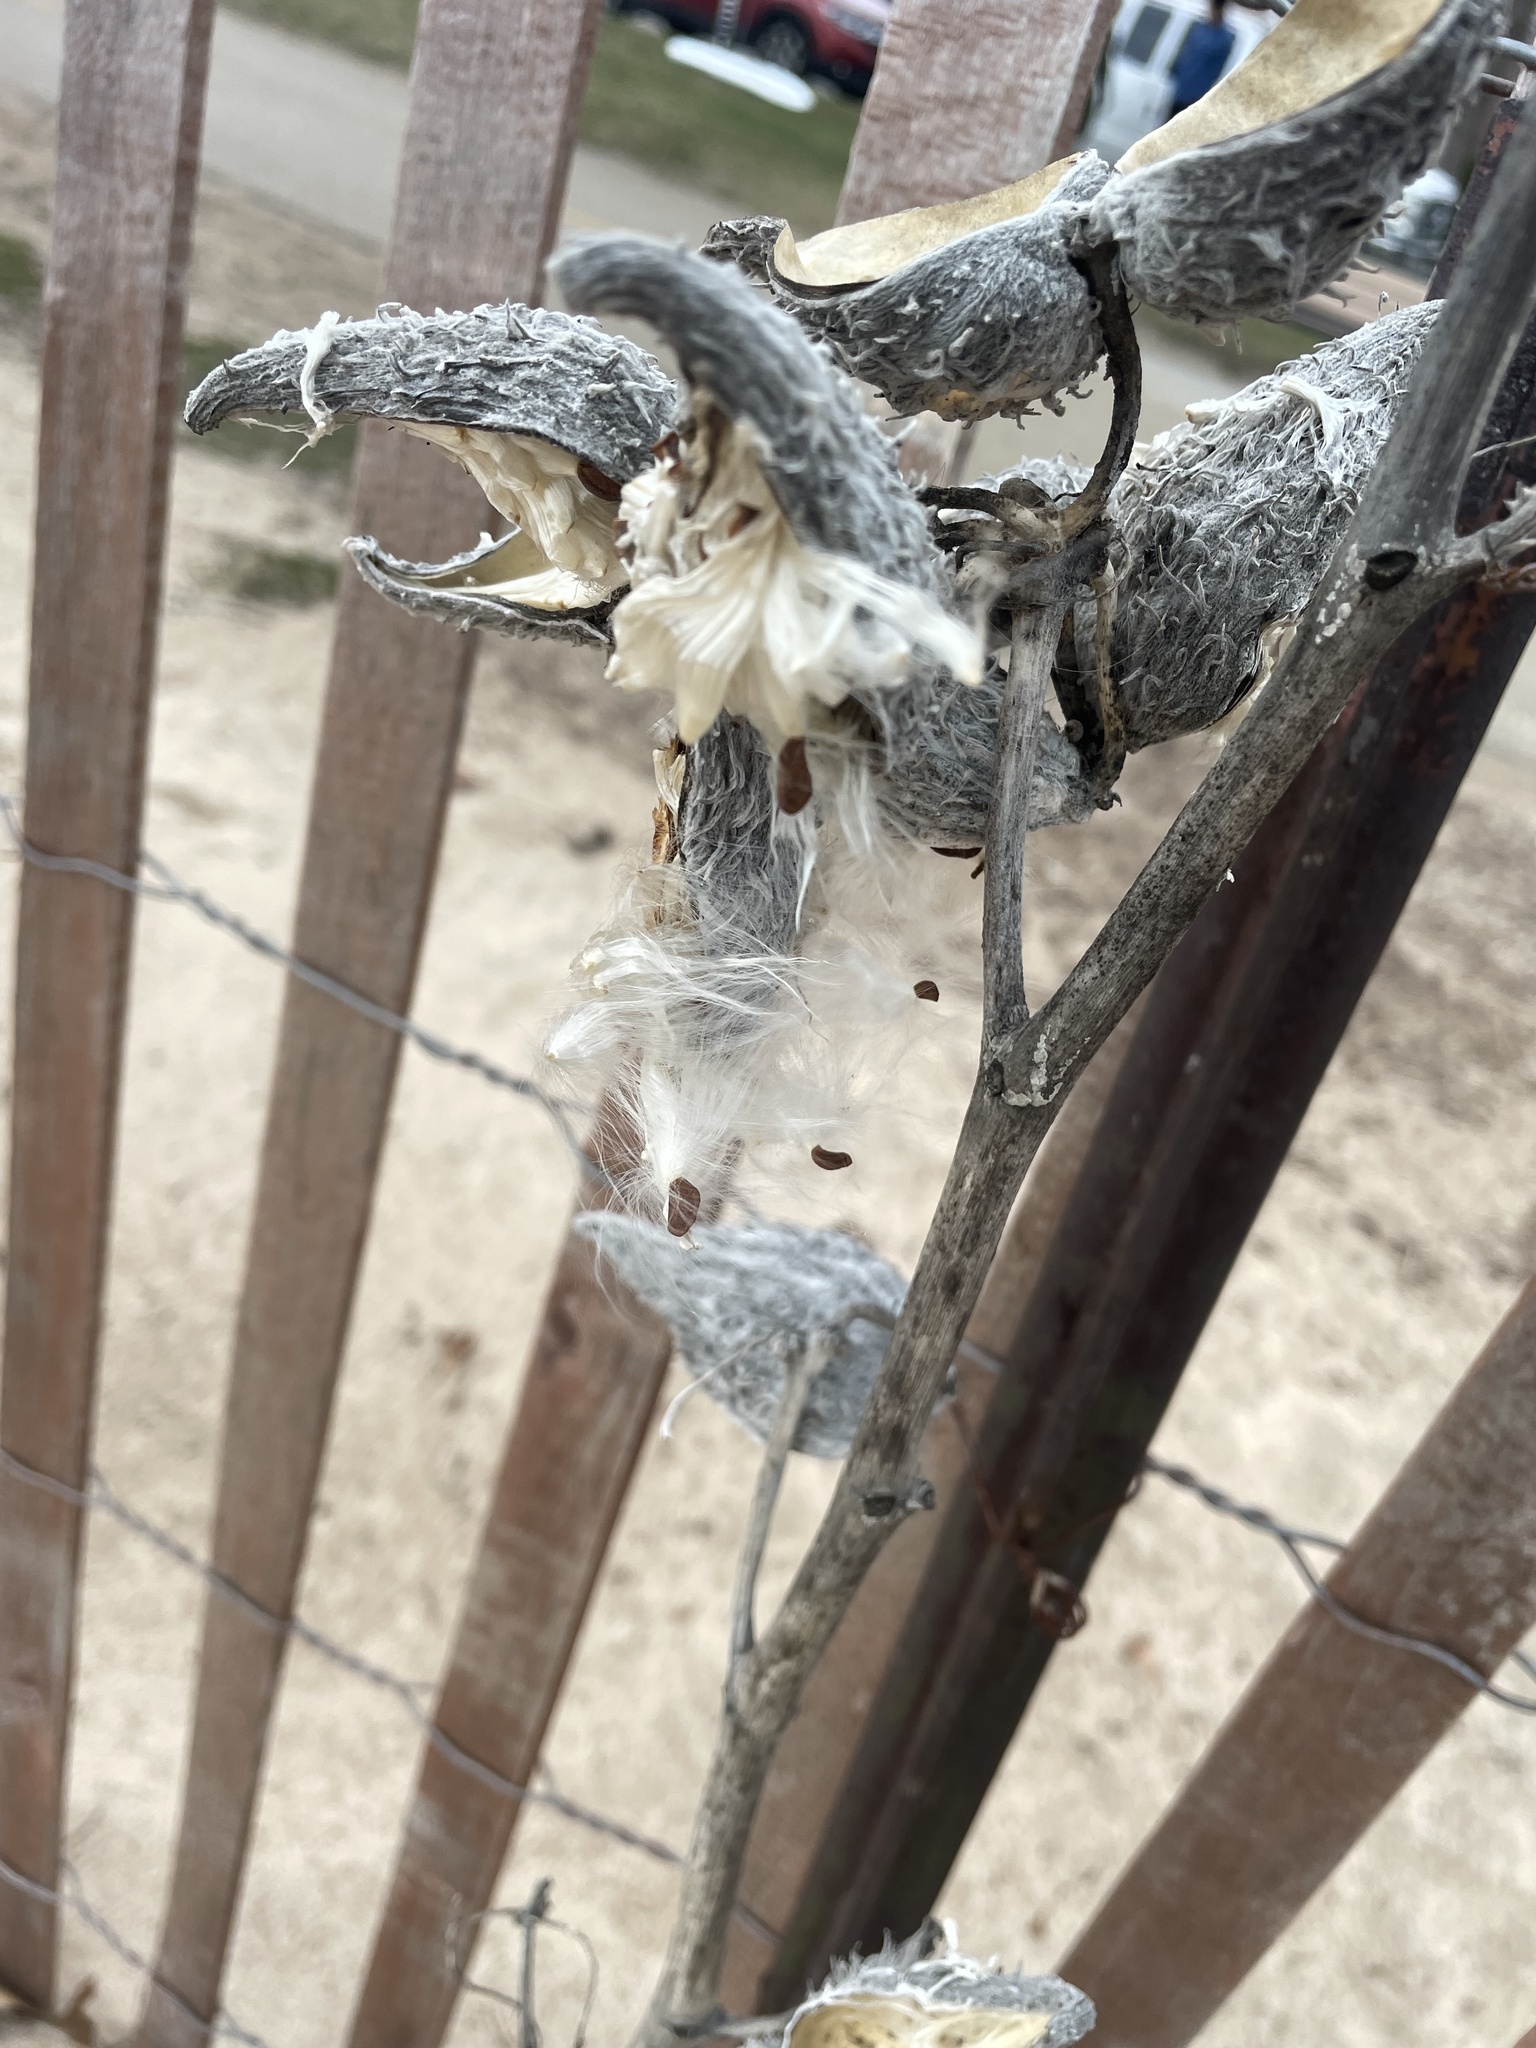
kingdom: Plantae
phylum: Tracheophyta
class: Magnoliopsida
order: Gentianales
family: Apocynaceae
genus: Asclepias
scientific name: Asclepias syriaca
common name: Common milkweed
